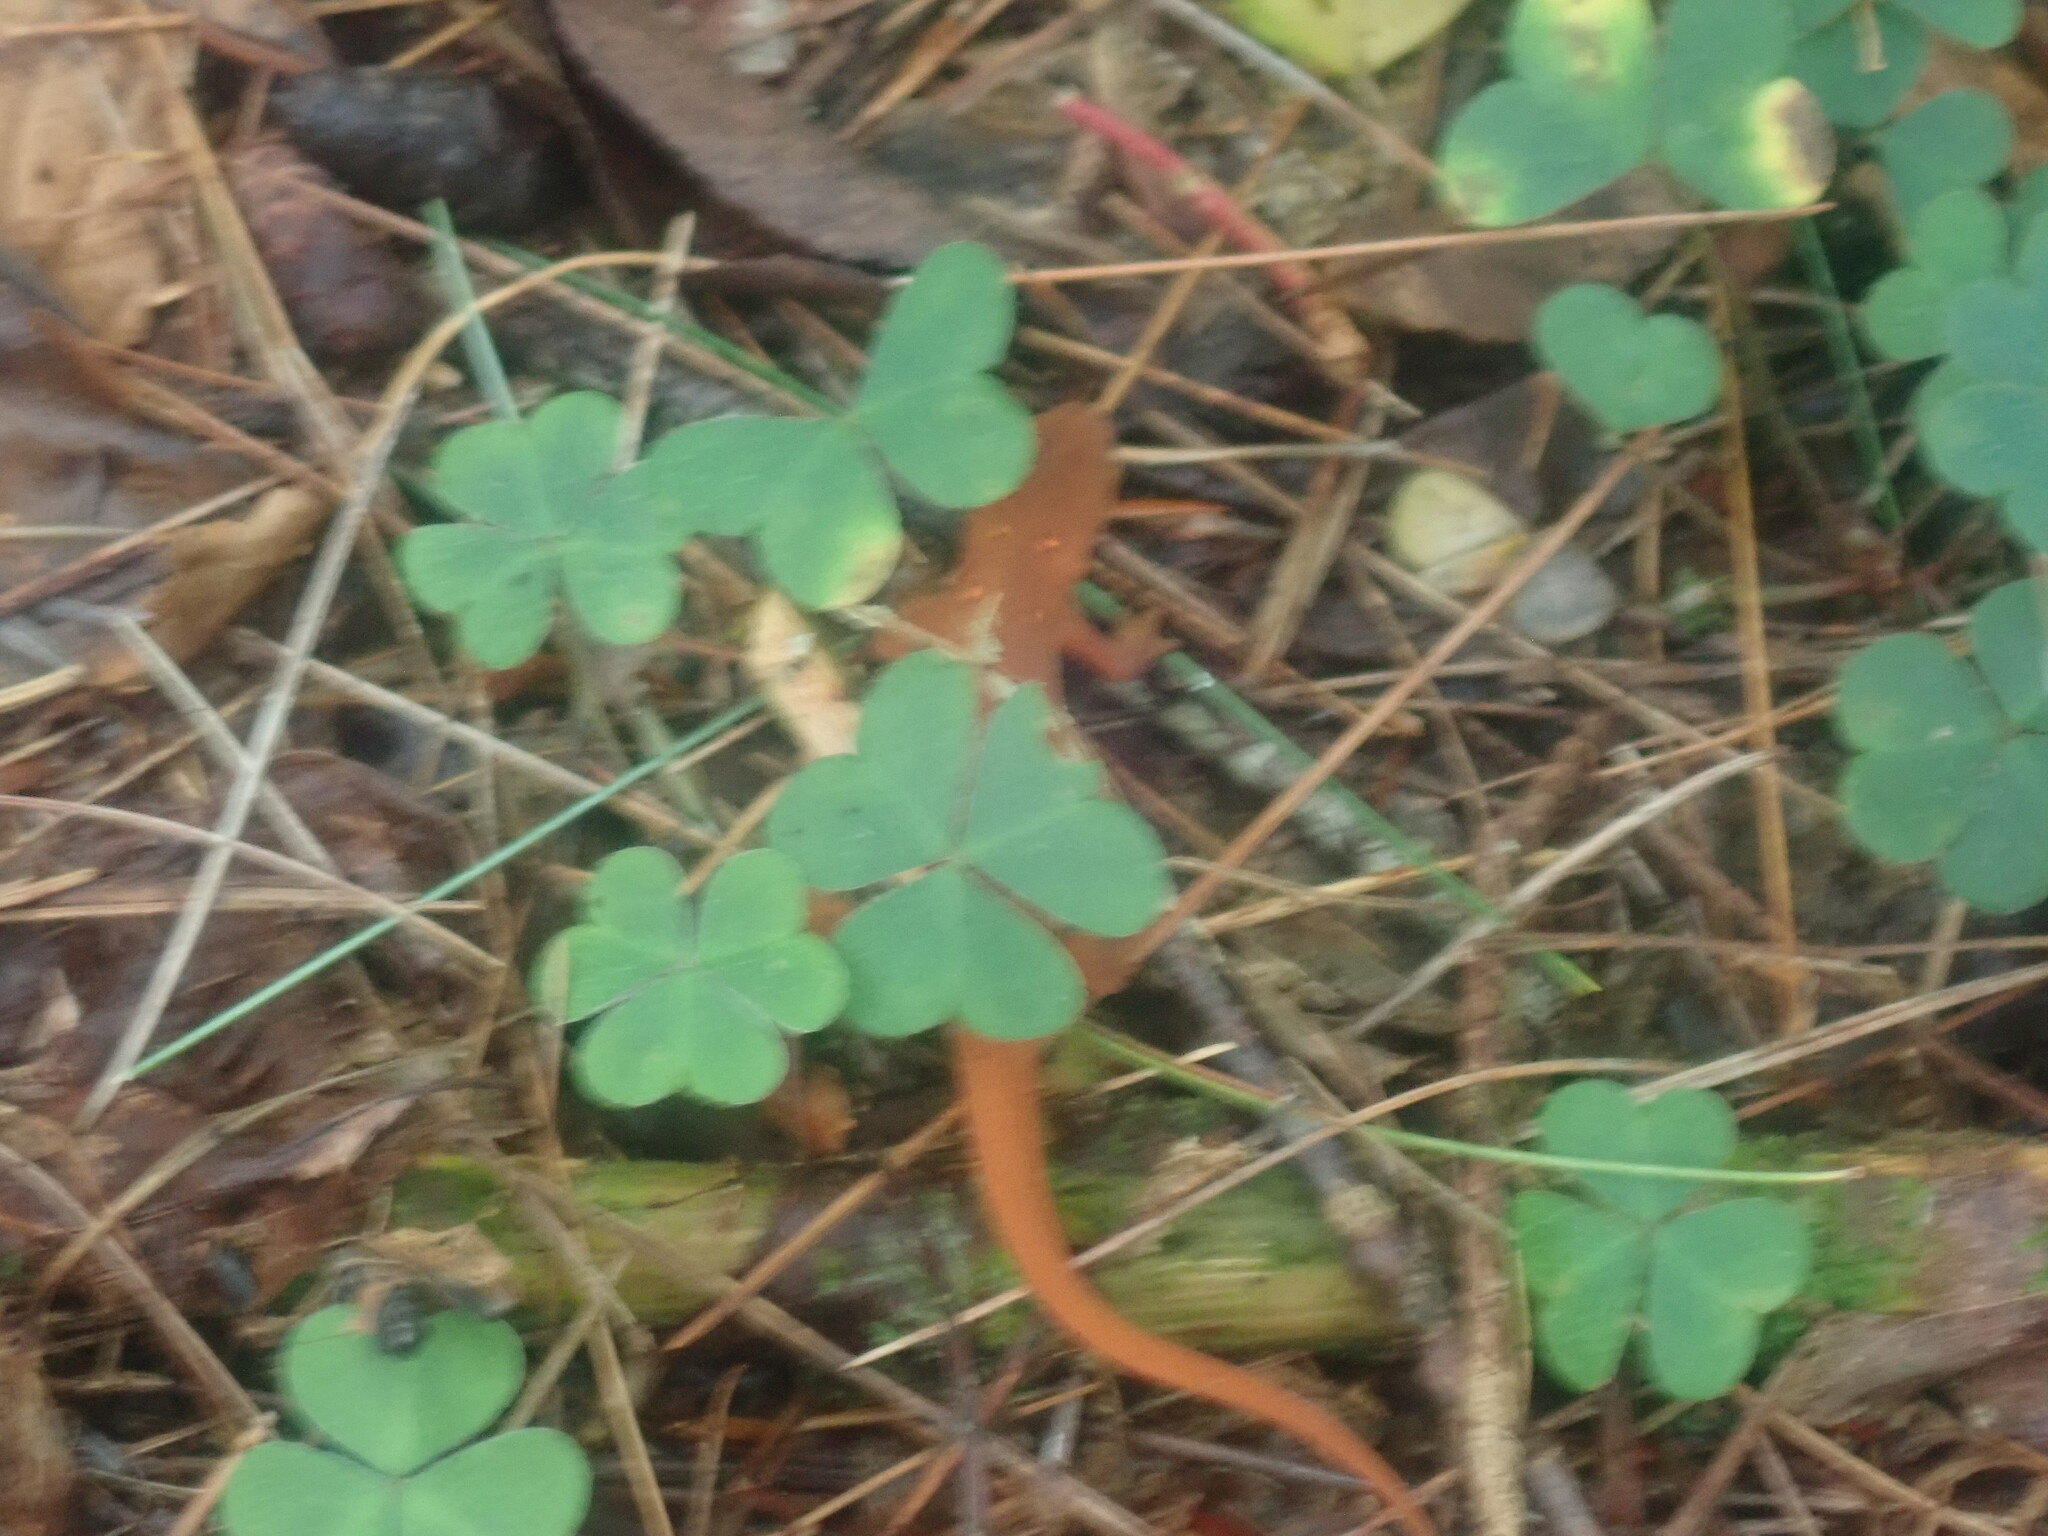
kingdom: Animalia
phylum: Chordata
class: Amphibia
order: Caudata
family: Salamandridae
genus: Notophthalmus
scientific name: Notophthalmus viridescens
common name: Eastern newt
